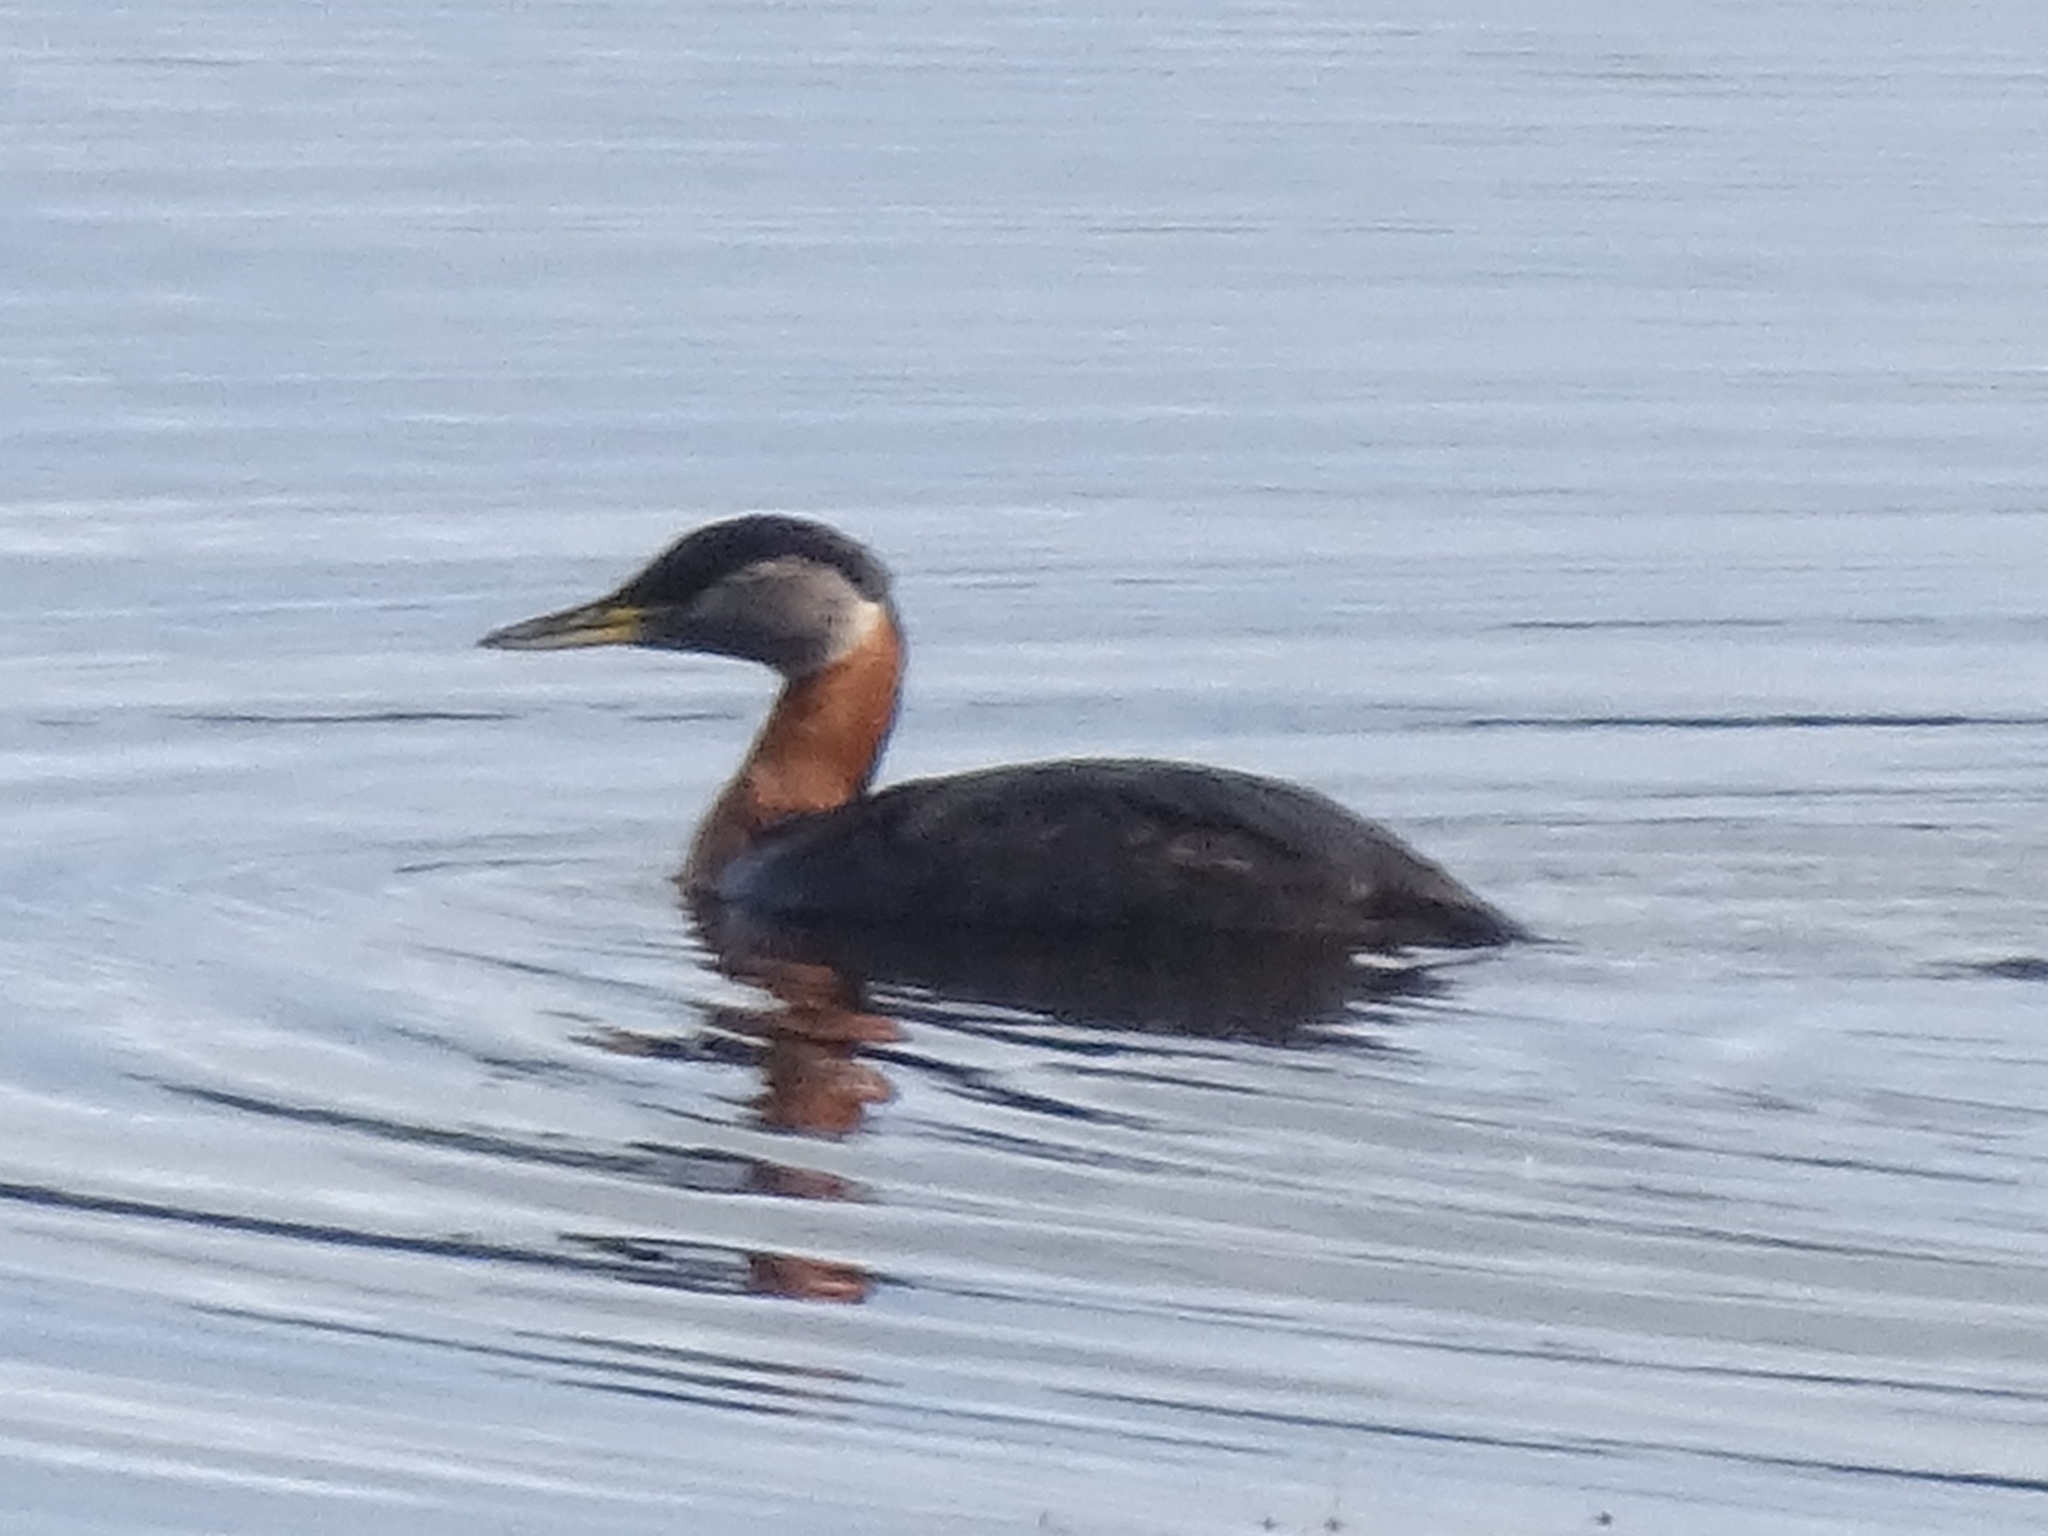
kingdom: Animalia
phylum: Chordata
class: Aves
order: Podicipediformes
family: Podicipedidae
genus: Podiceps
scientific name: Podiceps grisegena
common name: Red-necked grebe
